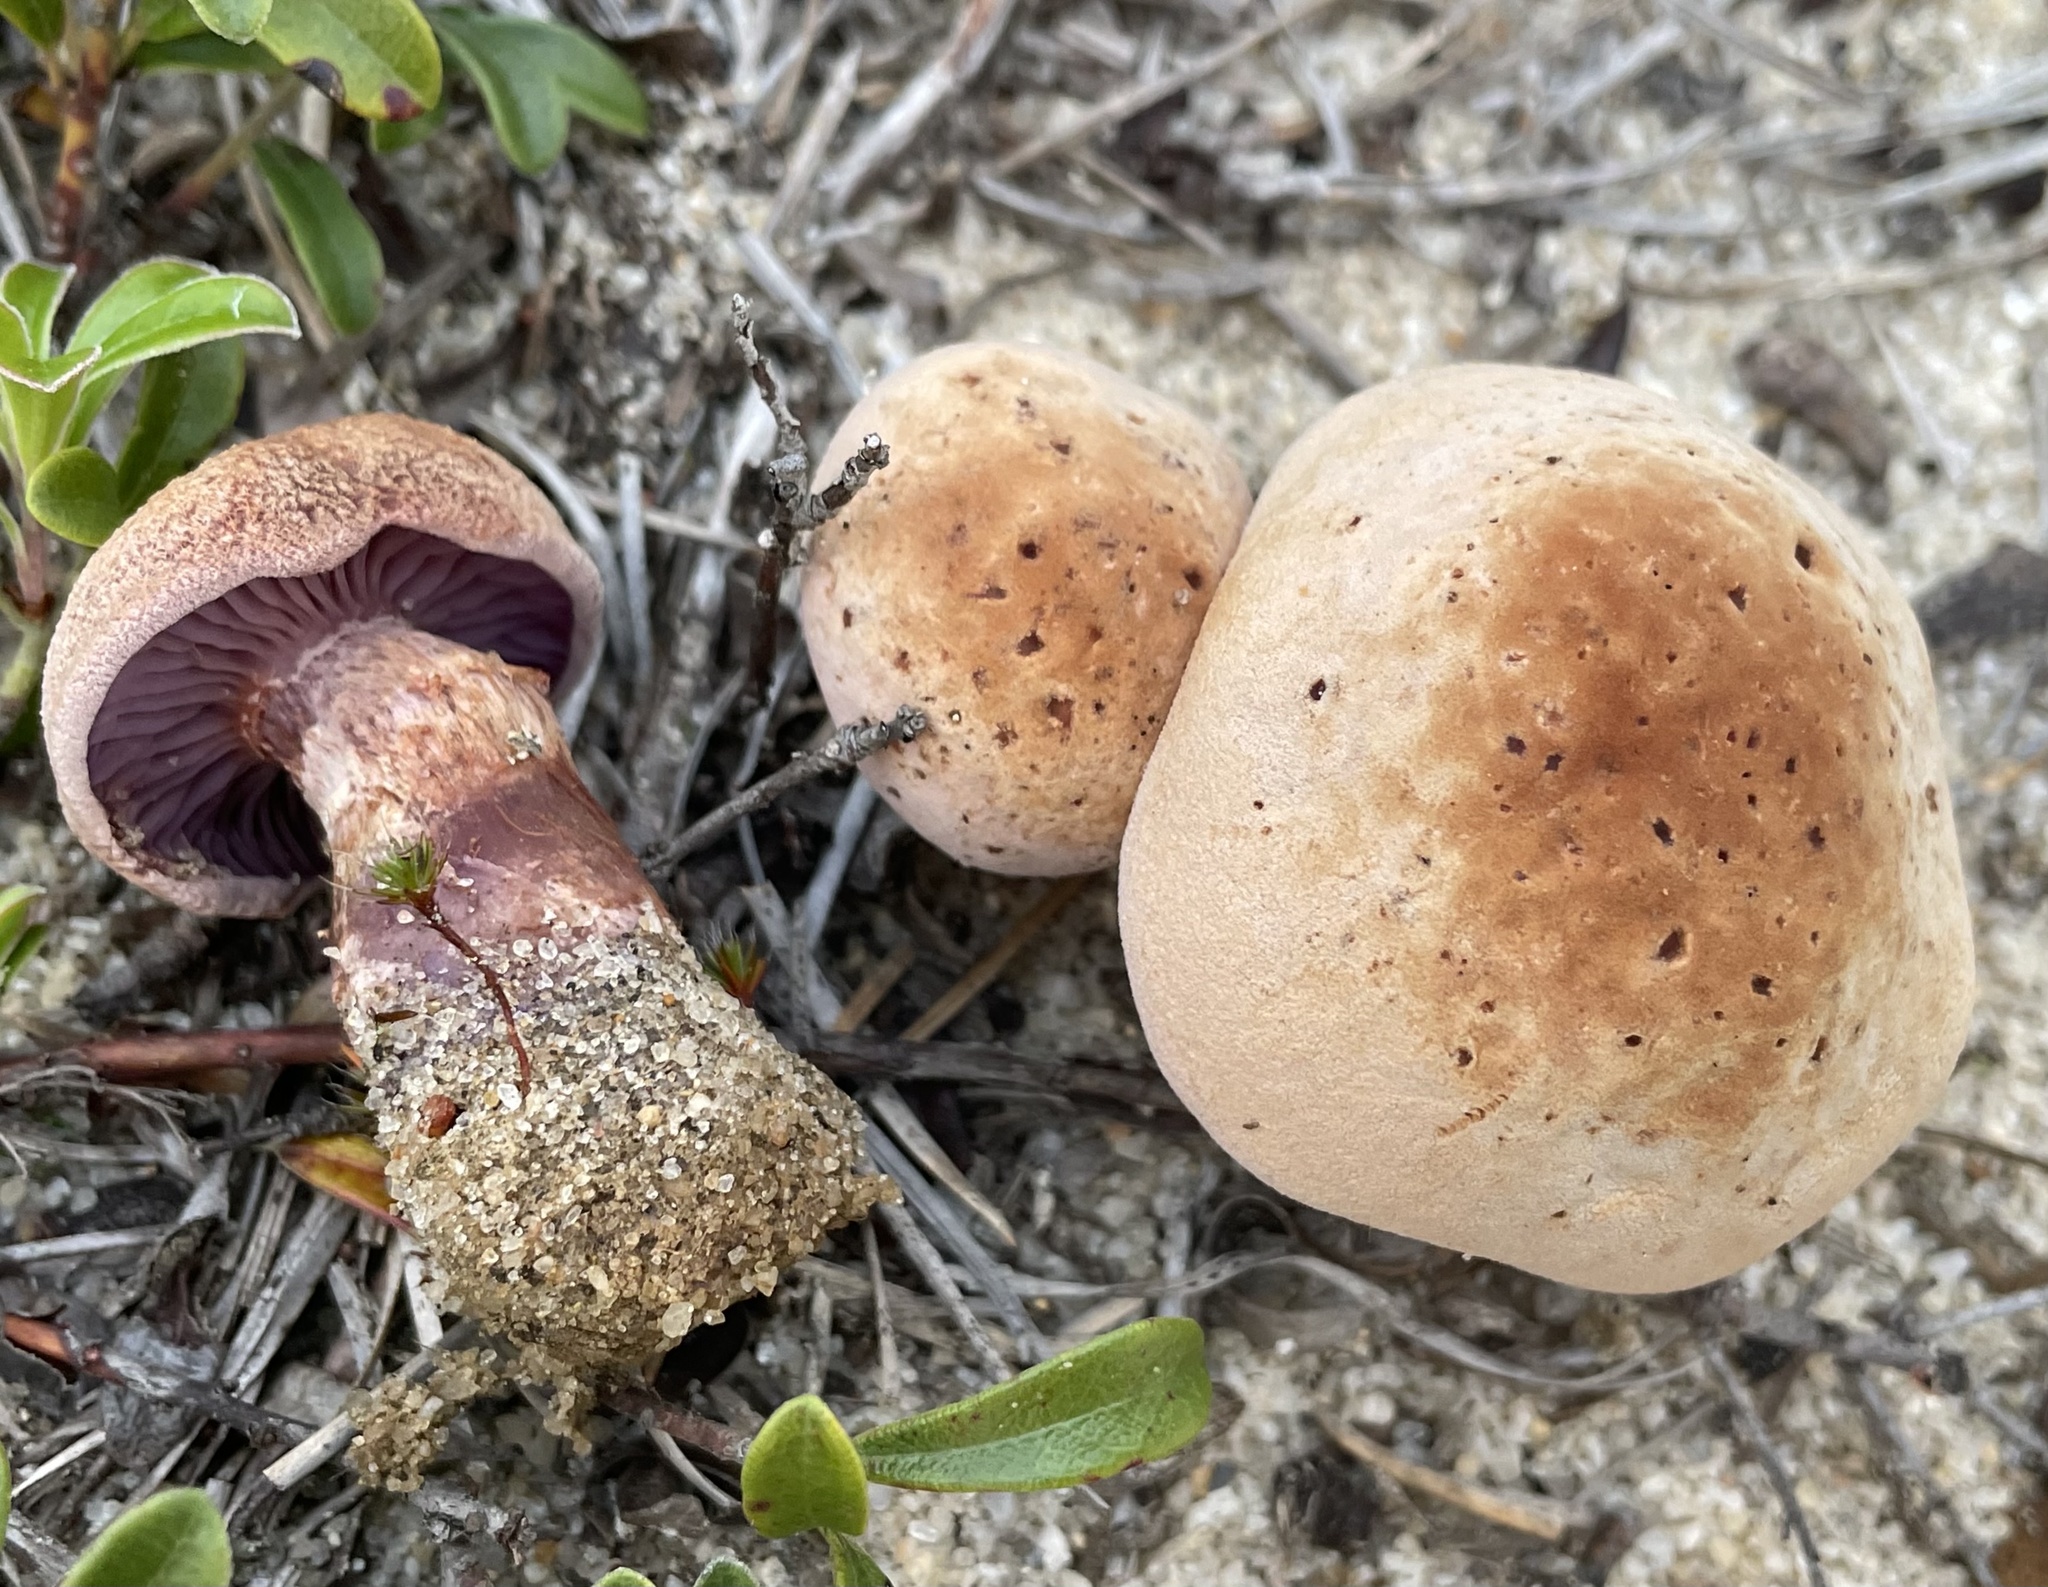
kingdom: Fungi
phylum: Basidiomycota
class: Agaricomycetes
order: Agaricales
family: Hydnangiaceae
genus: Laccaria
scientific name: Laccaria trullissata
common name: Sandy laccaria
